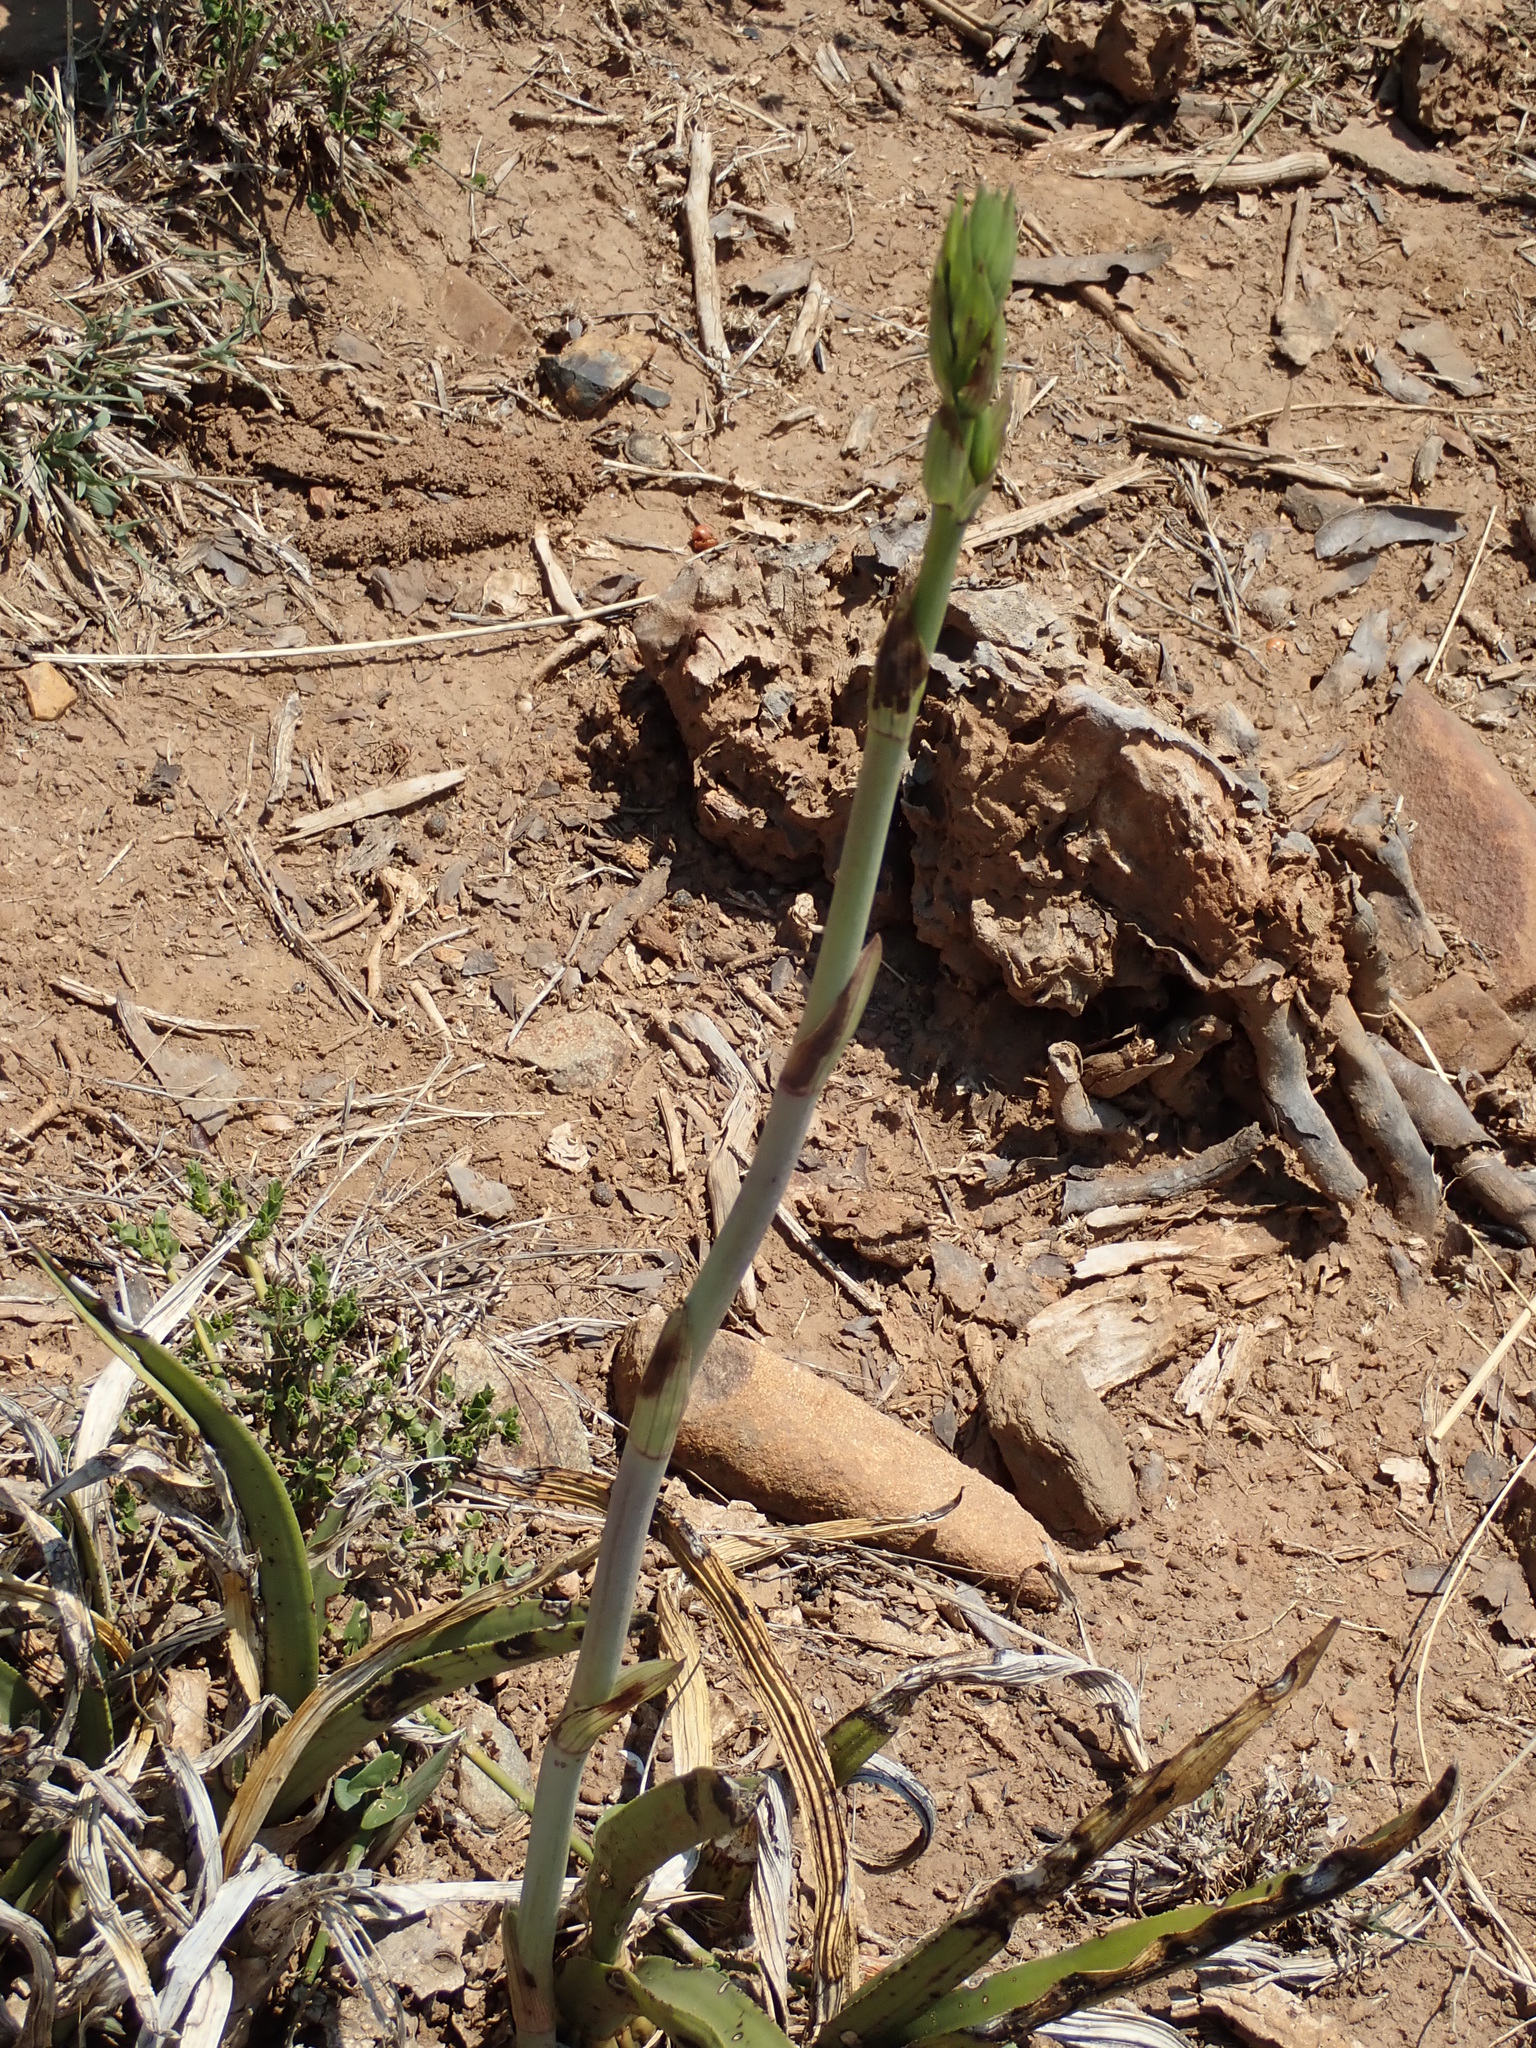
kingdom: Plantae
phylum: Tracheophyta
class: Liliopsida
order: Asparagales
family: Orchidaceae
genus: Eulophia
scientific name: Eulophia petersii
